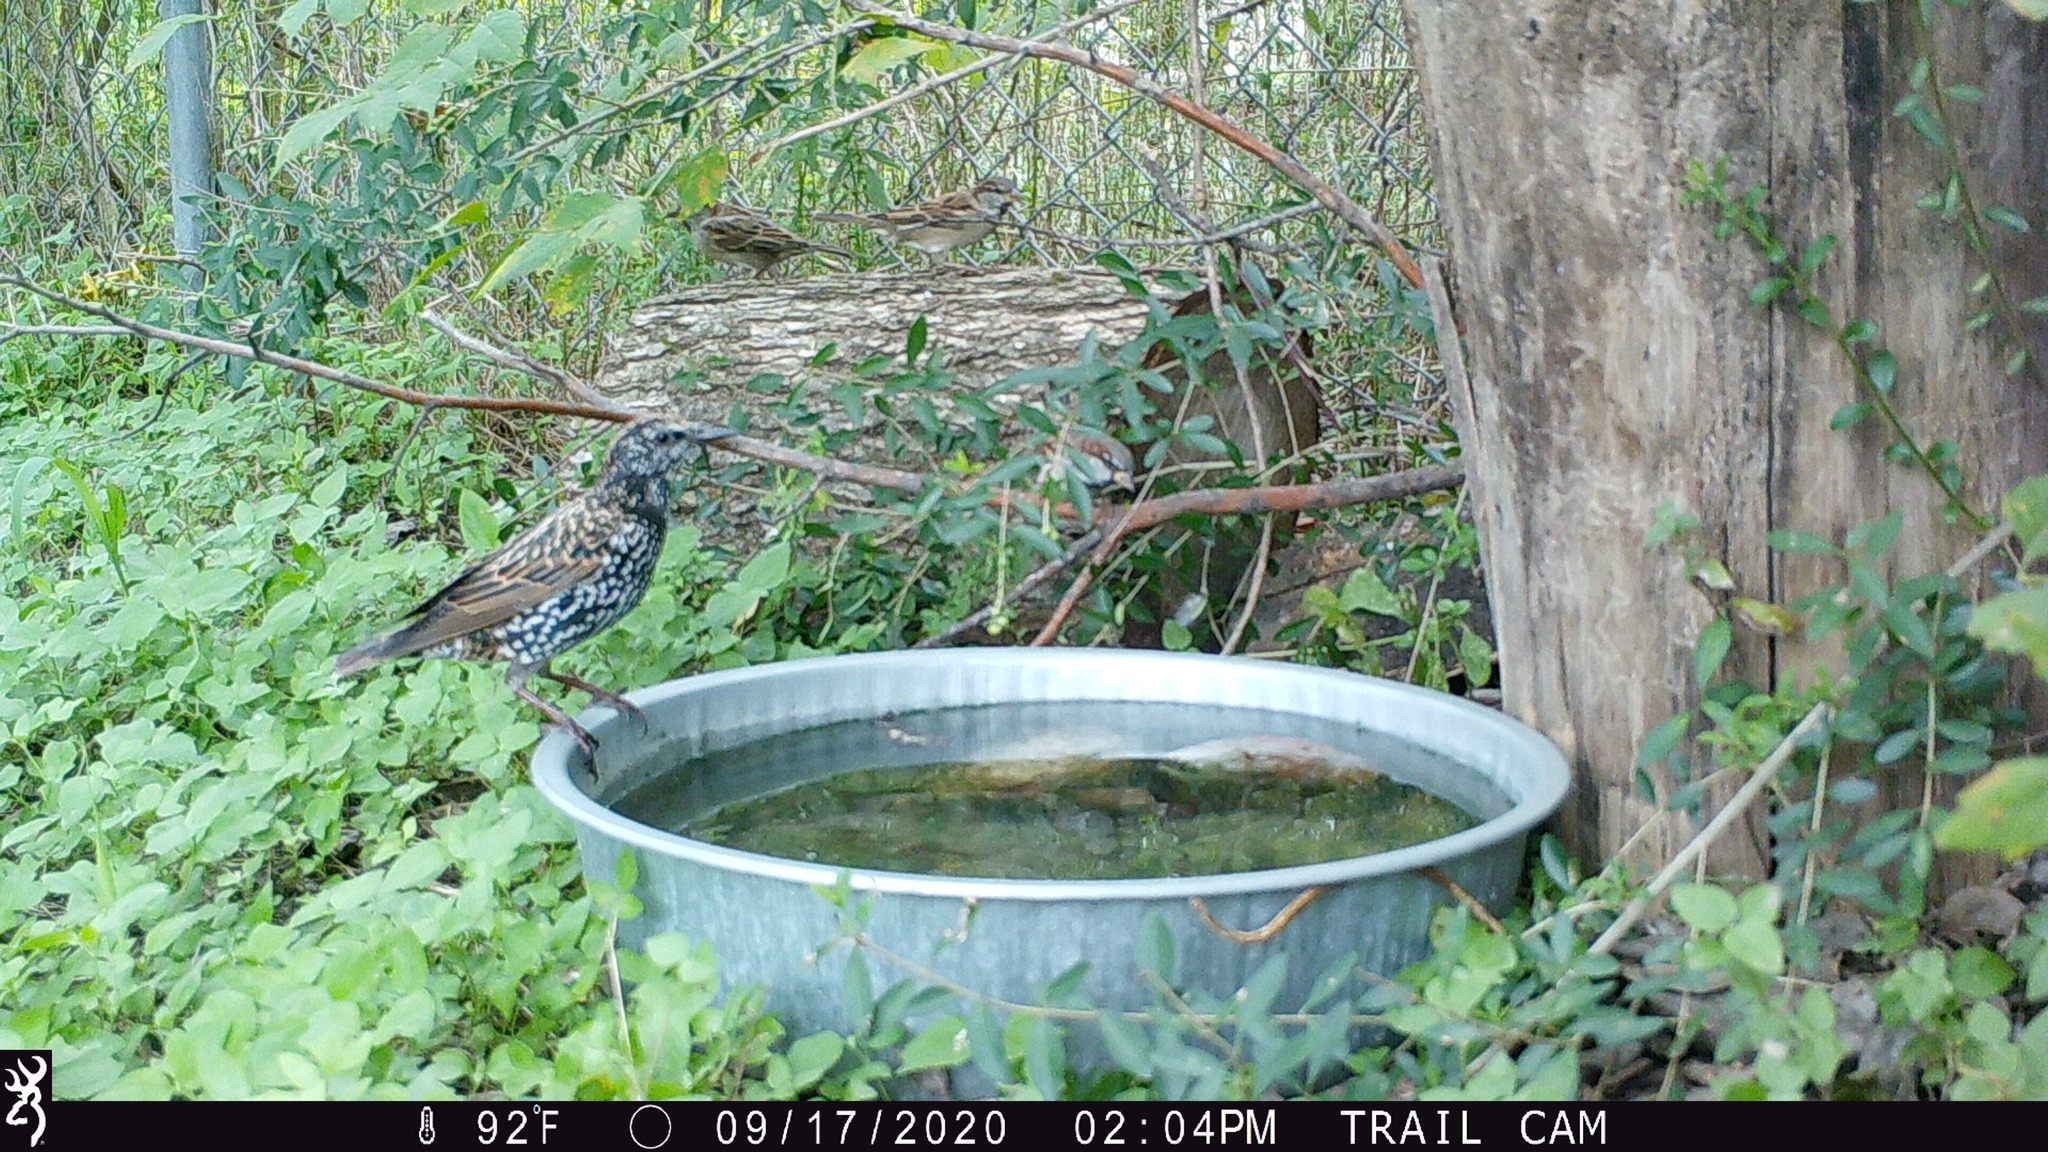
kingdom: Animalia
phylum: Chordata
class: Aves
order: Passeriformes
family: Sturnidae
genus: Sturnus
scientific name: Sturnus vulgaris
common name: Common starling
